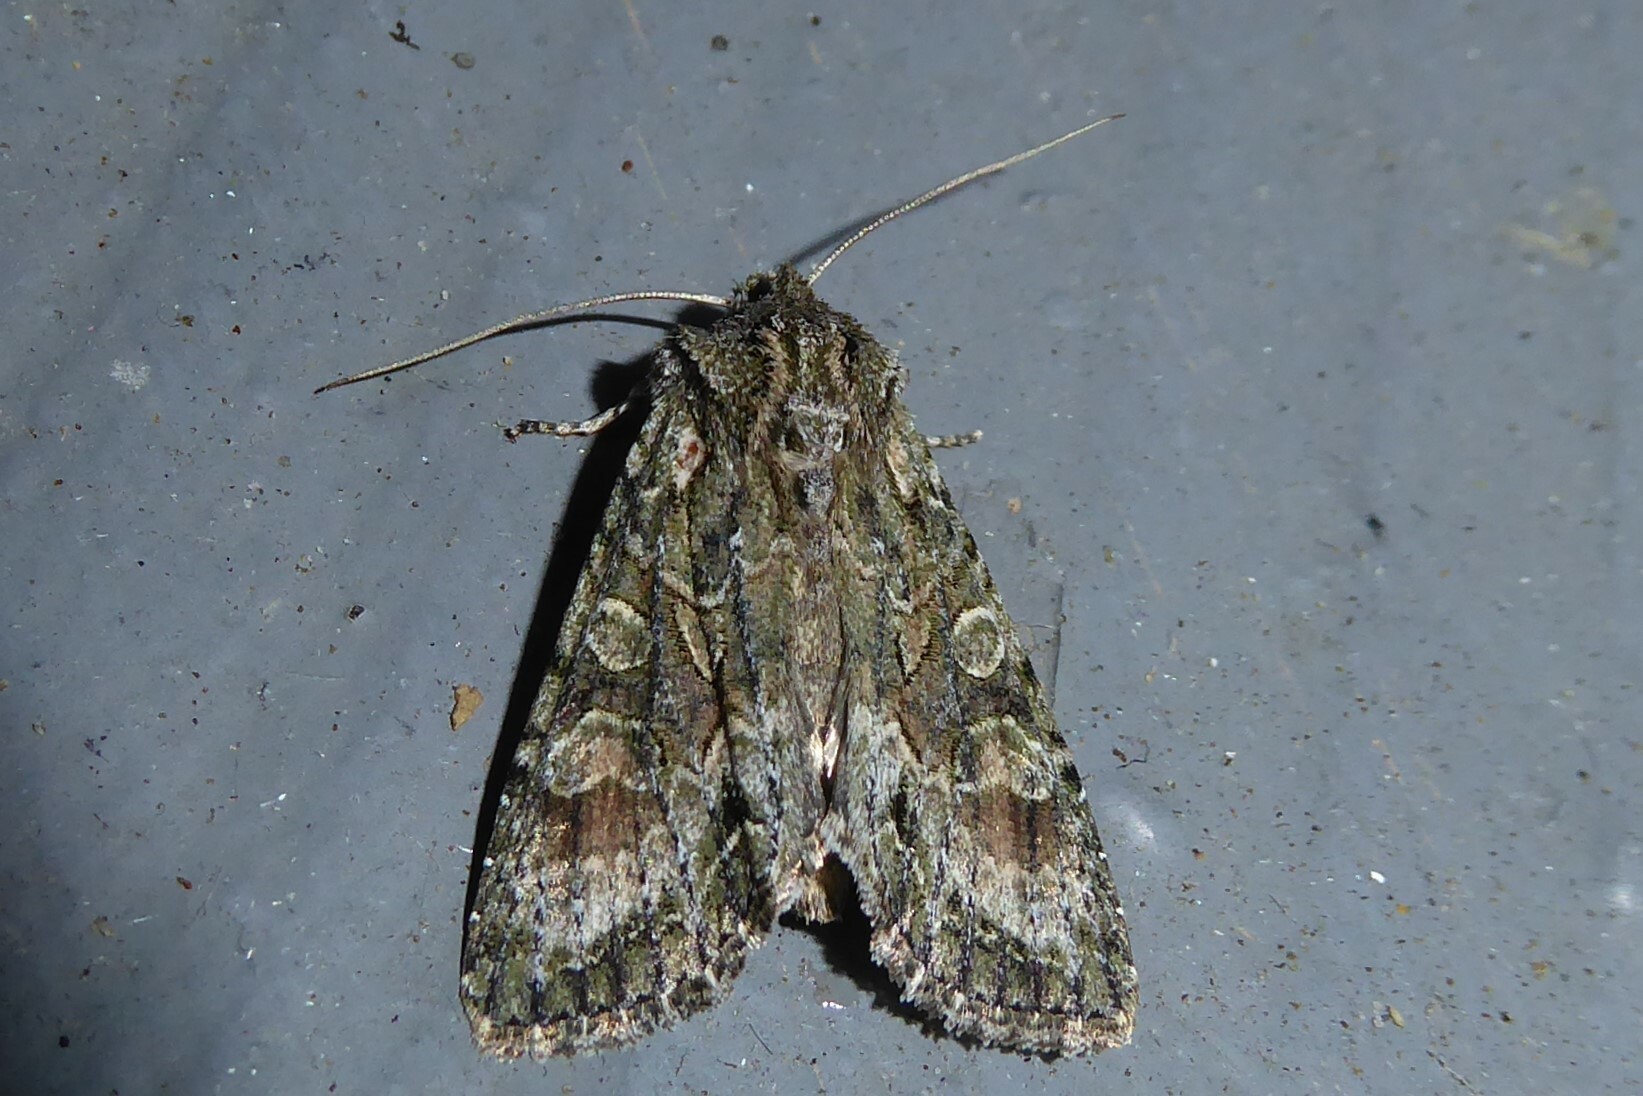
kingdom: Animalia
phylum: Arthropoda
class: Insecta
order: Lepidoptera
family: Noctuidae
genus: Ichneutica
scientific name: Ichneutica mutans
